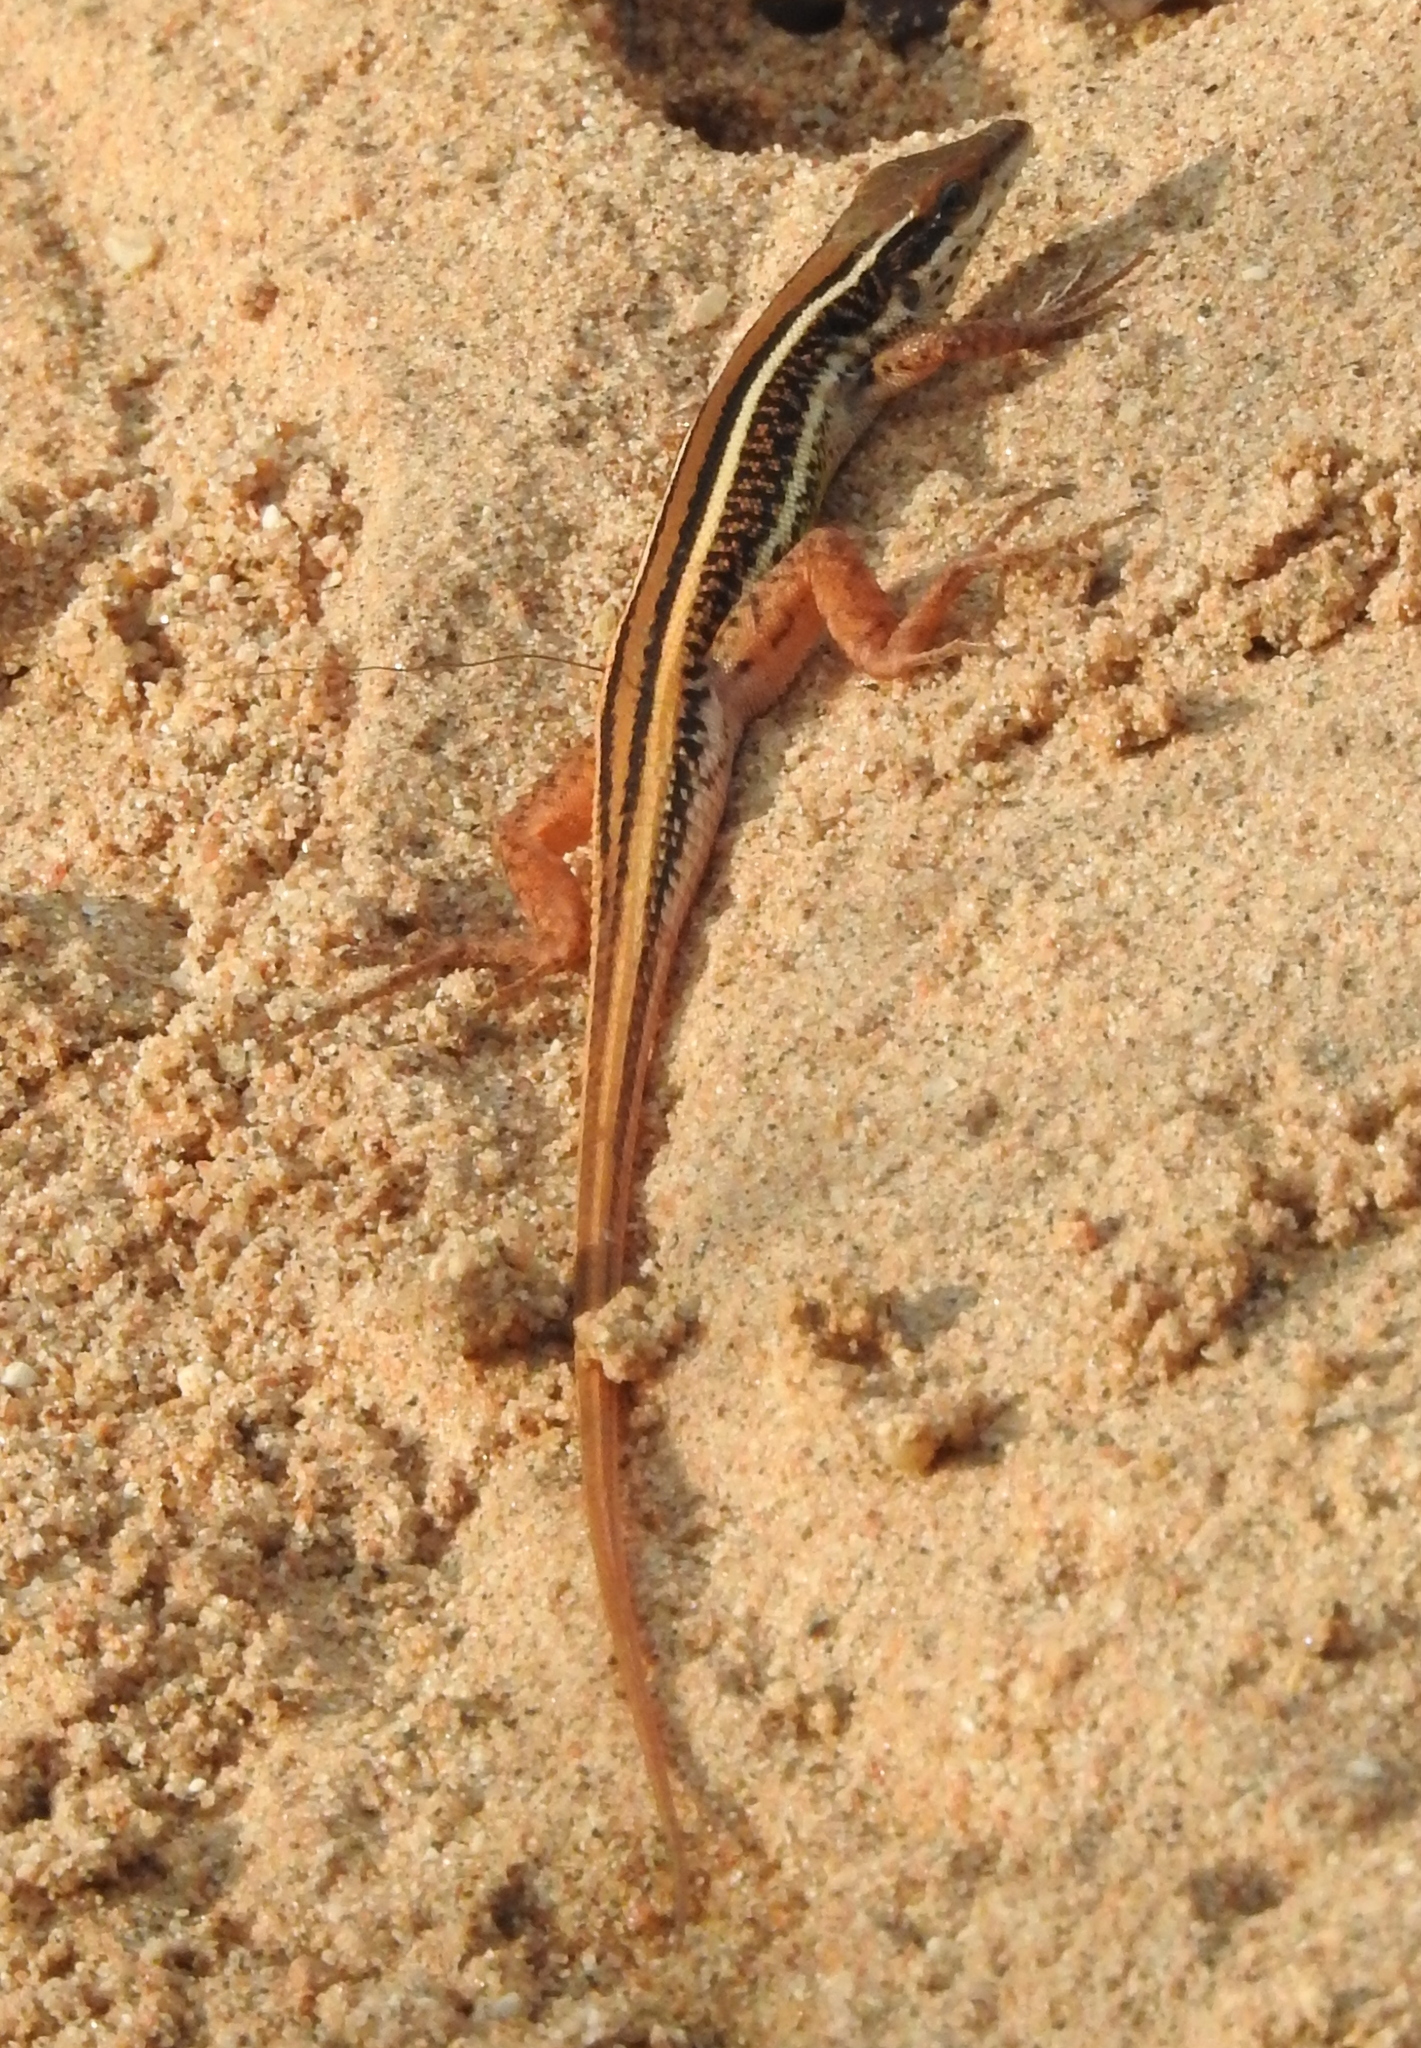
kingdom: Animalia
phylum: Chordata
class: Squamata
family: Lacertidae
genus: Ophisops
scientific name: Ophisops leschenaultii
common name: Leschenault's cabrita
